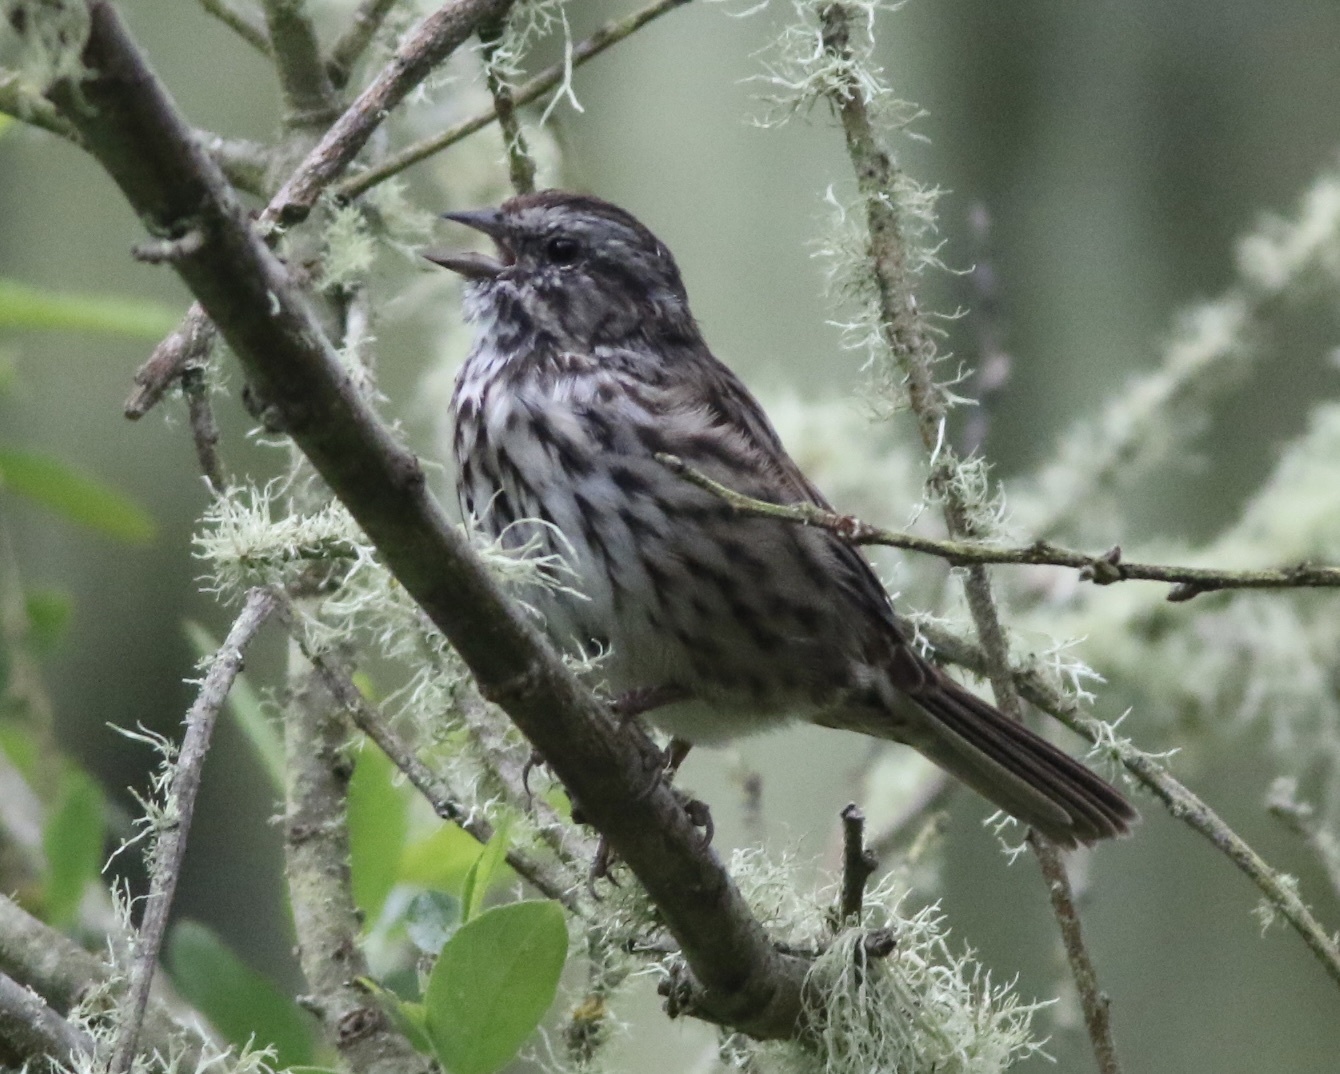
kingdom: Animalia
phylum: Chordata
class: Aves
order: Passeriformes
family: Passerellidae
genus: Melospiza
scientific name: Melospiza melodia
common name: Song sparrow
